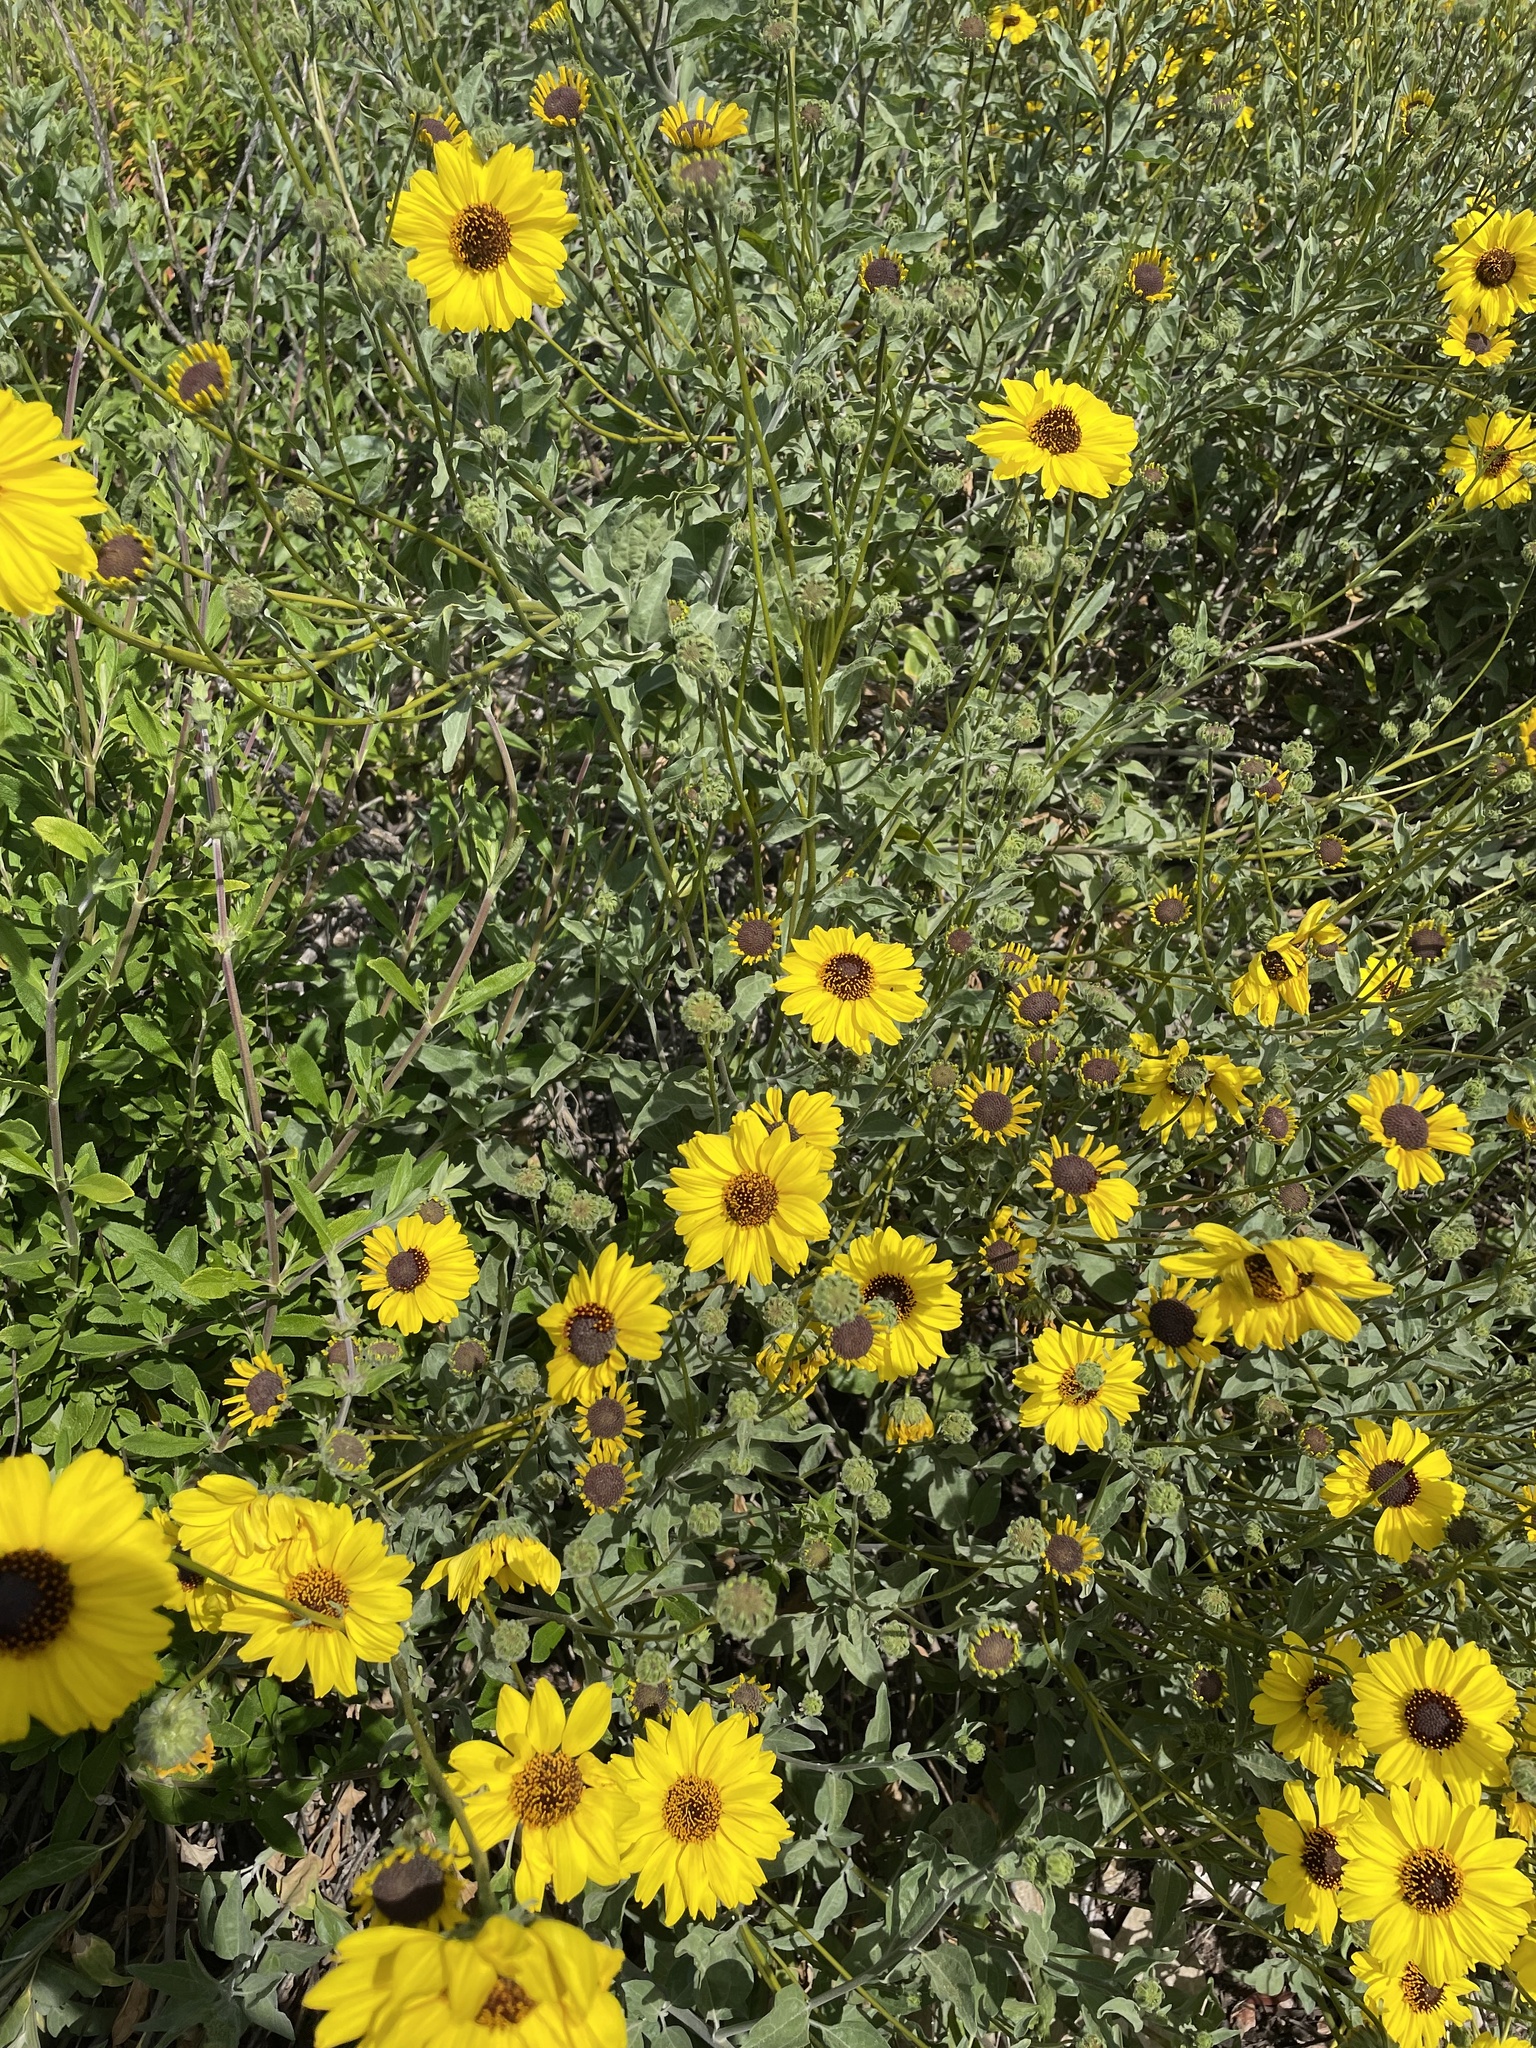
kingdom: Plantae
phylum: Tracheophyta
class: Magnoliopsida
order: Asterales
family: Asteraceae
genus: Encelia
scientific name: Encelia californica
